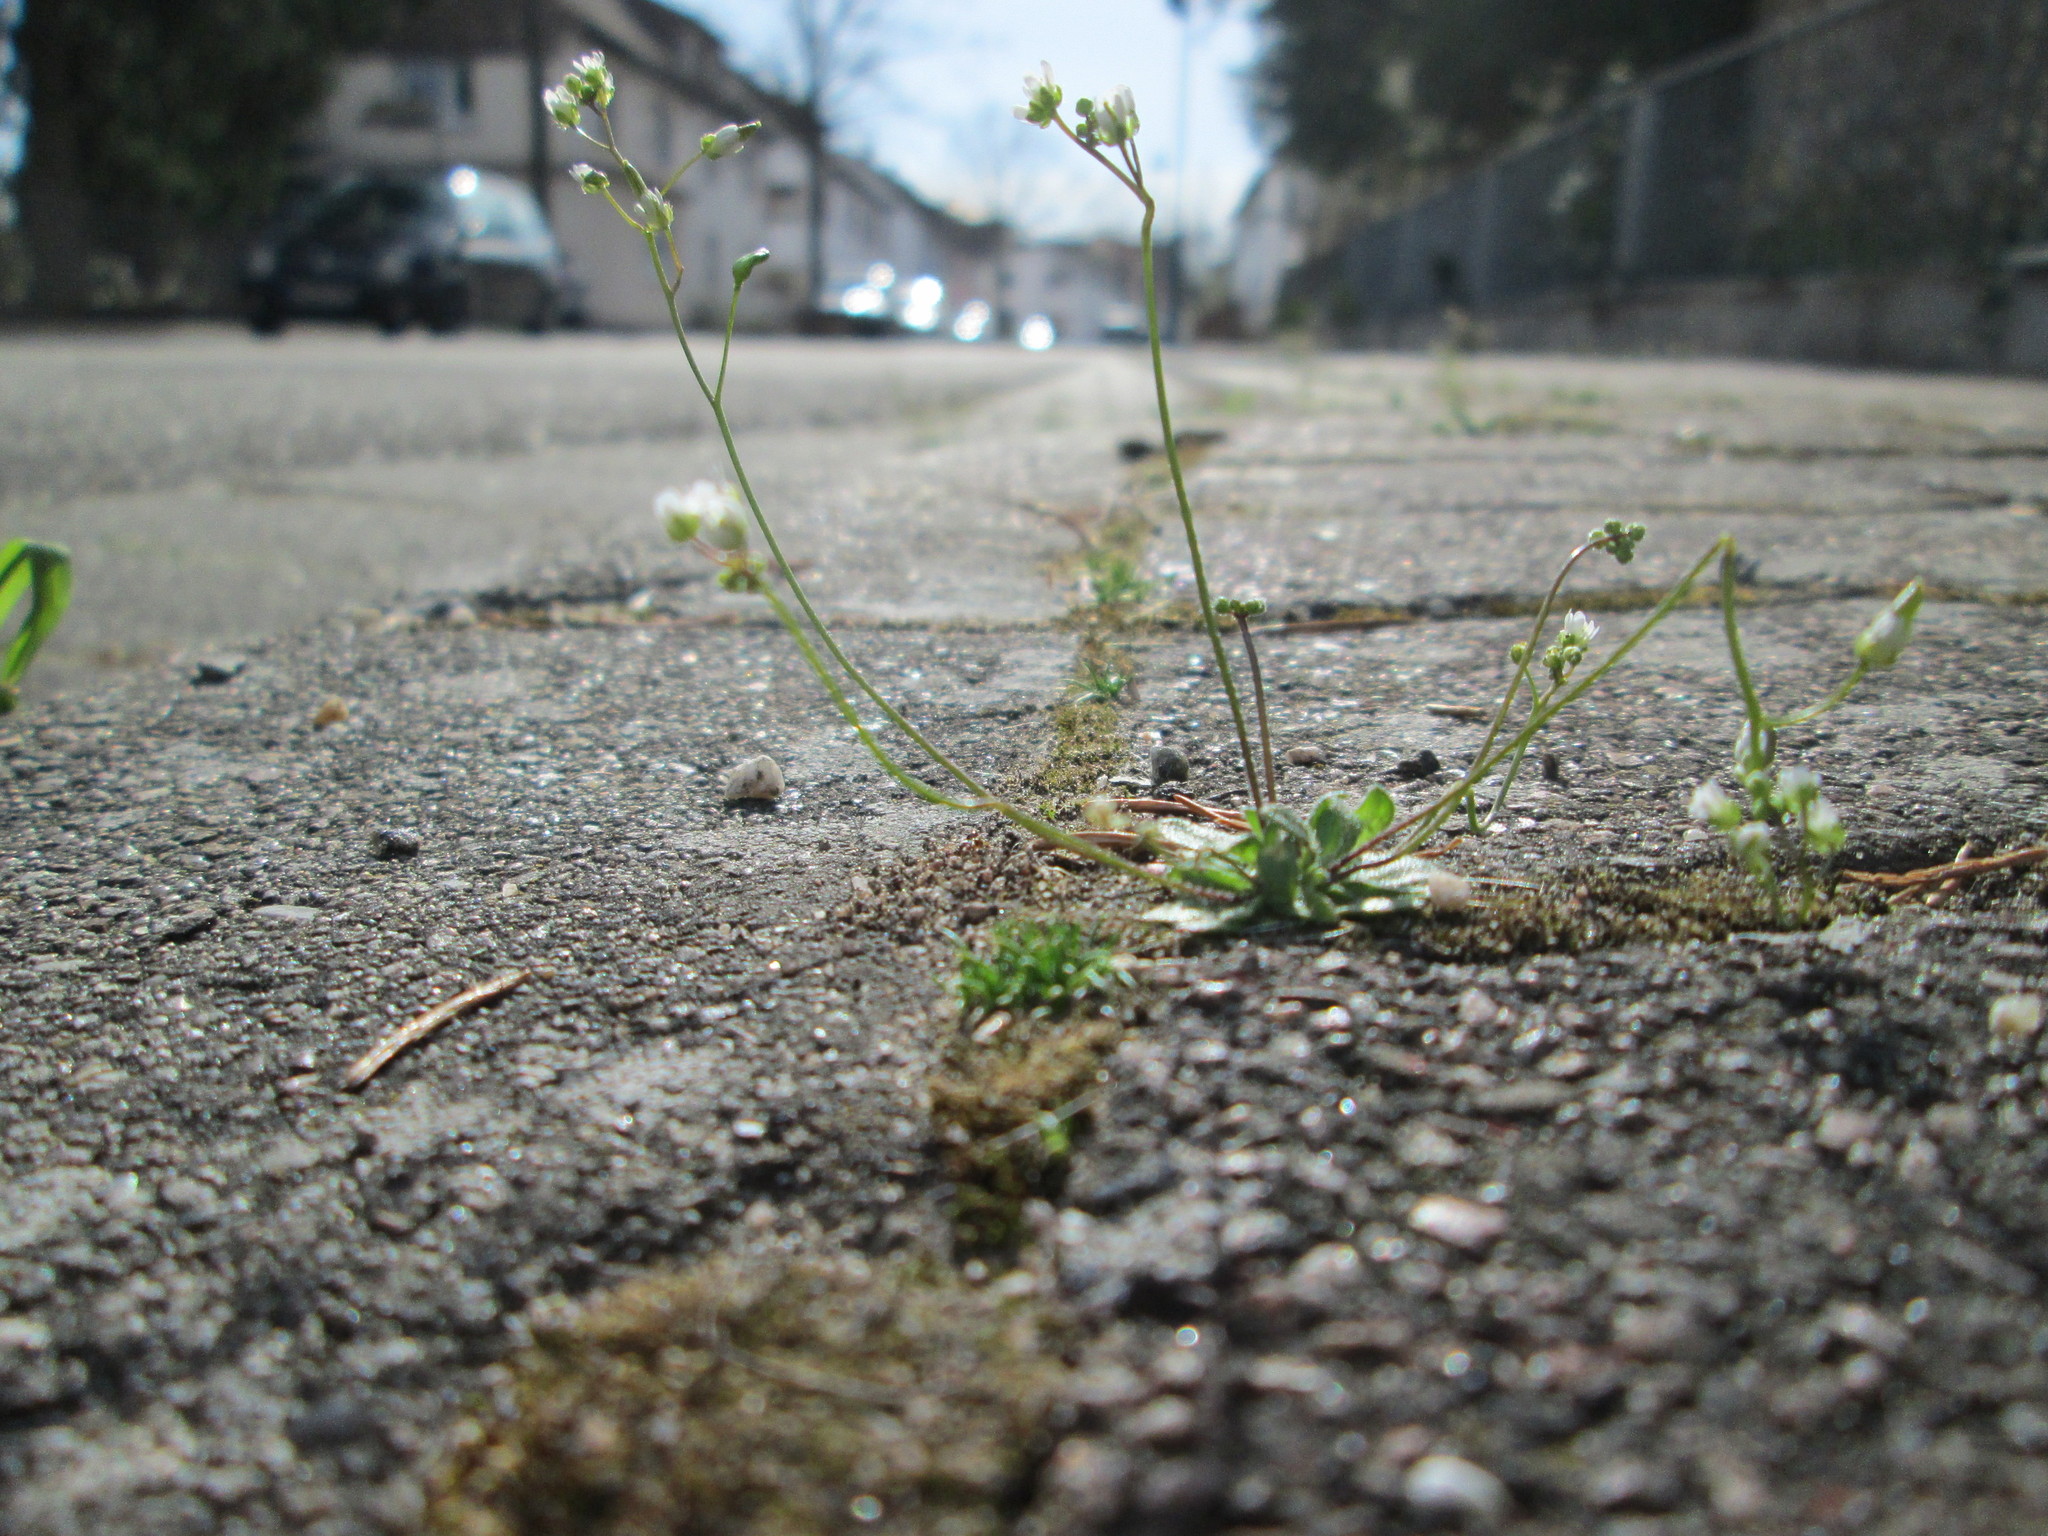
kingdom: Plantae
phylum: Tracheophyta
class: Magnoliopsida
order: Brassicales
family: Brassicaceae
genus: Draba
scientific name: Draba verna
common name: Spring draba
